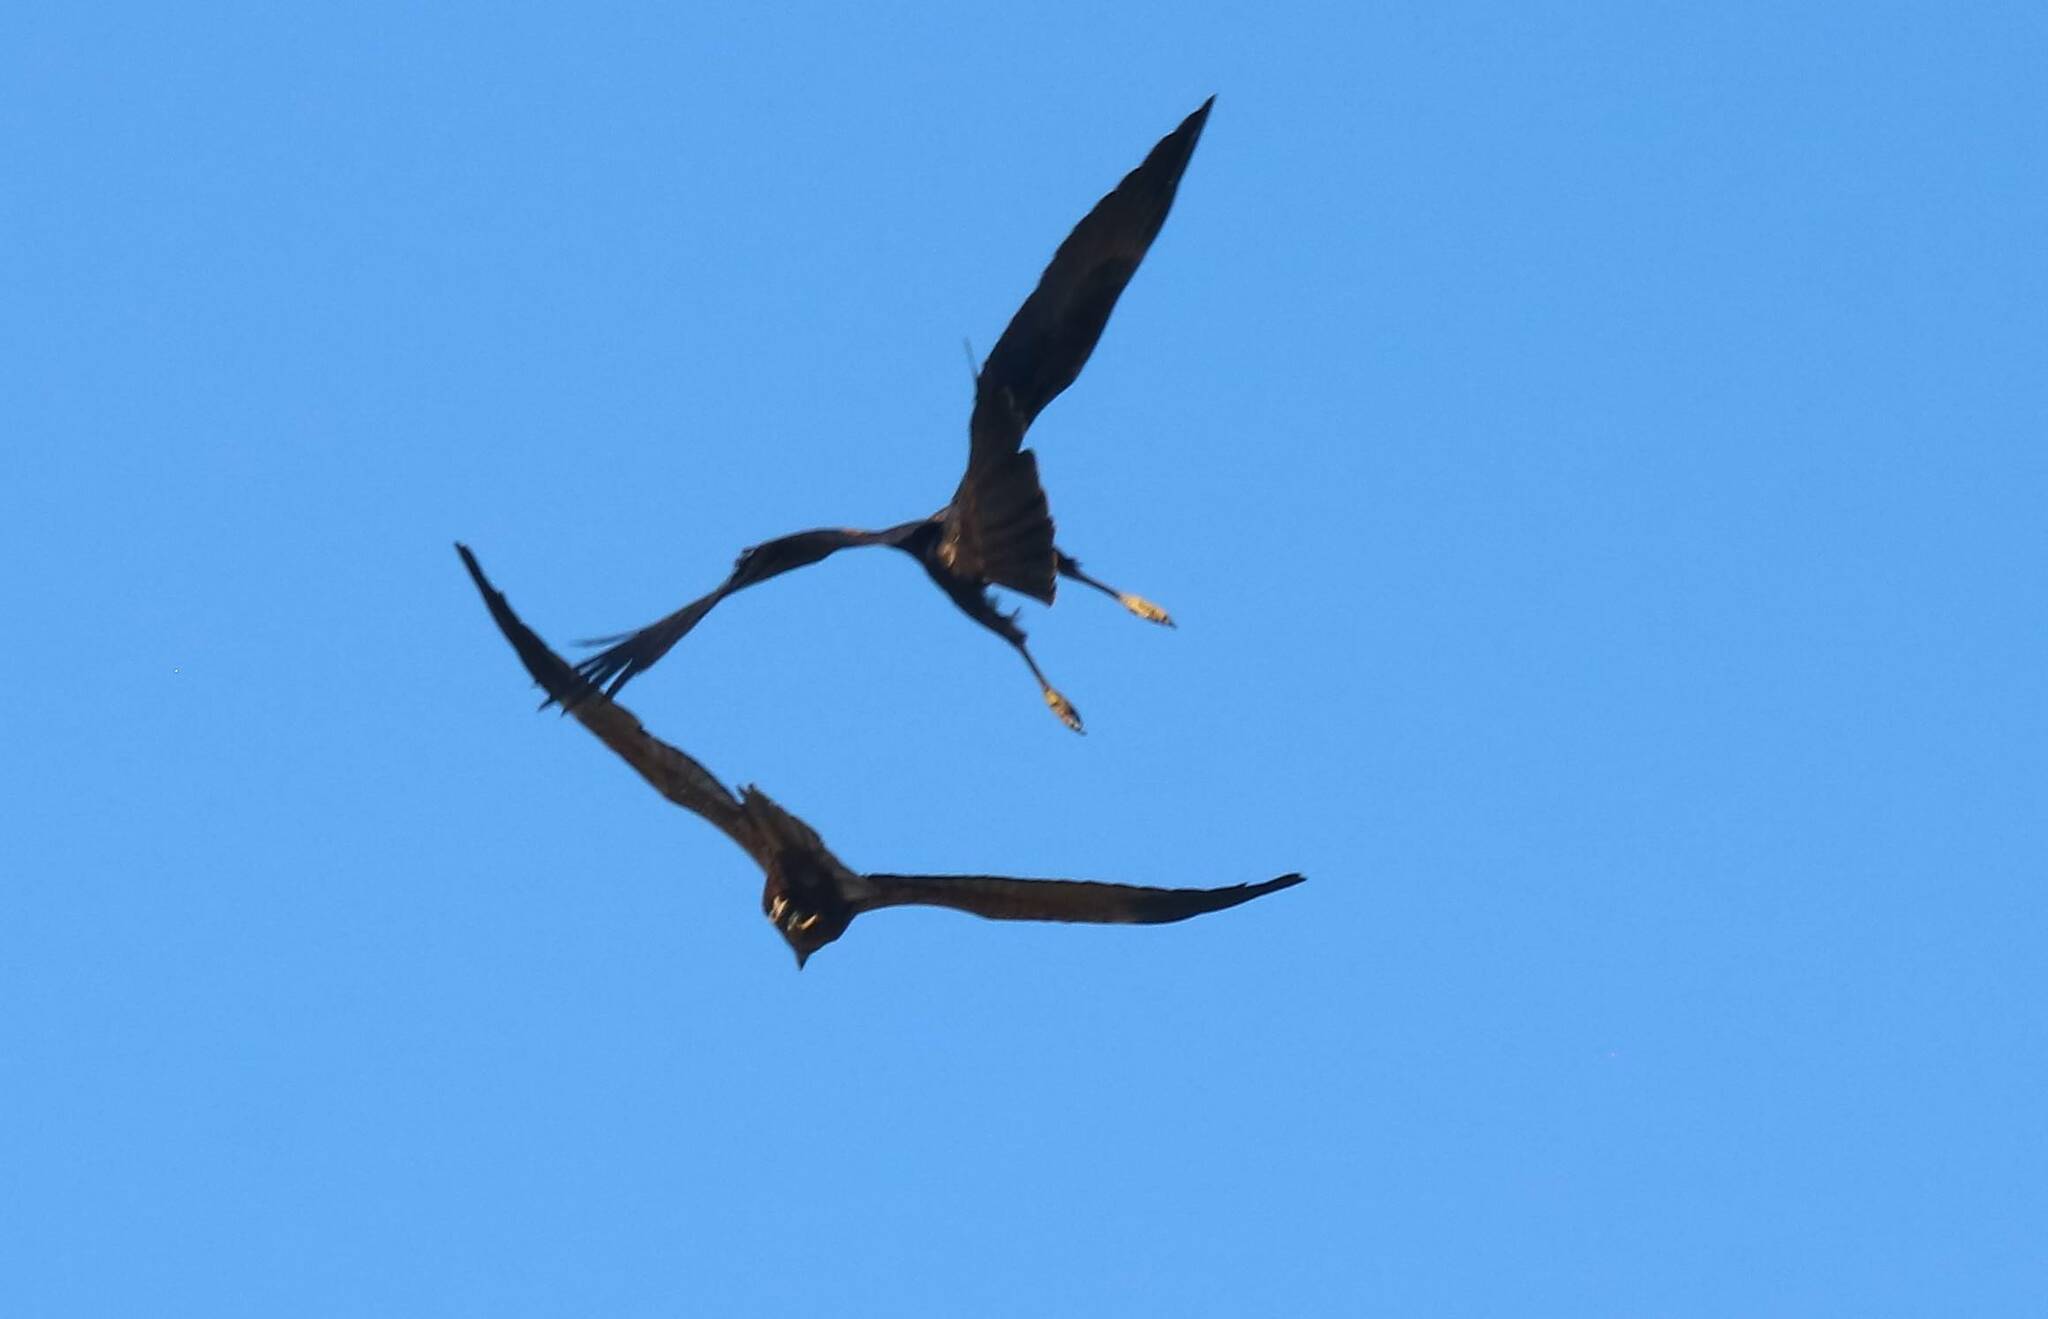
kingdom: Animalia
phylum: Chordata
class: Aves
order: Accipitriformes
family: Accipitridae
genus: Circus
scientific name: Circus aeruginosus
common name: Western marsh harrier
